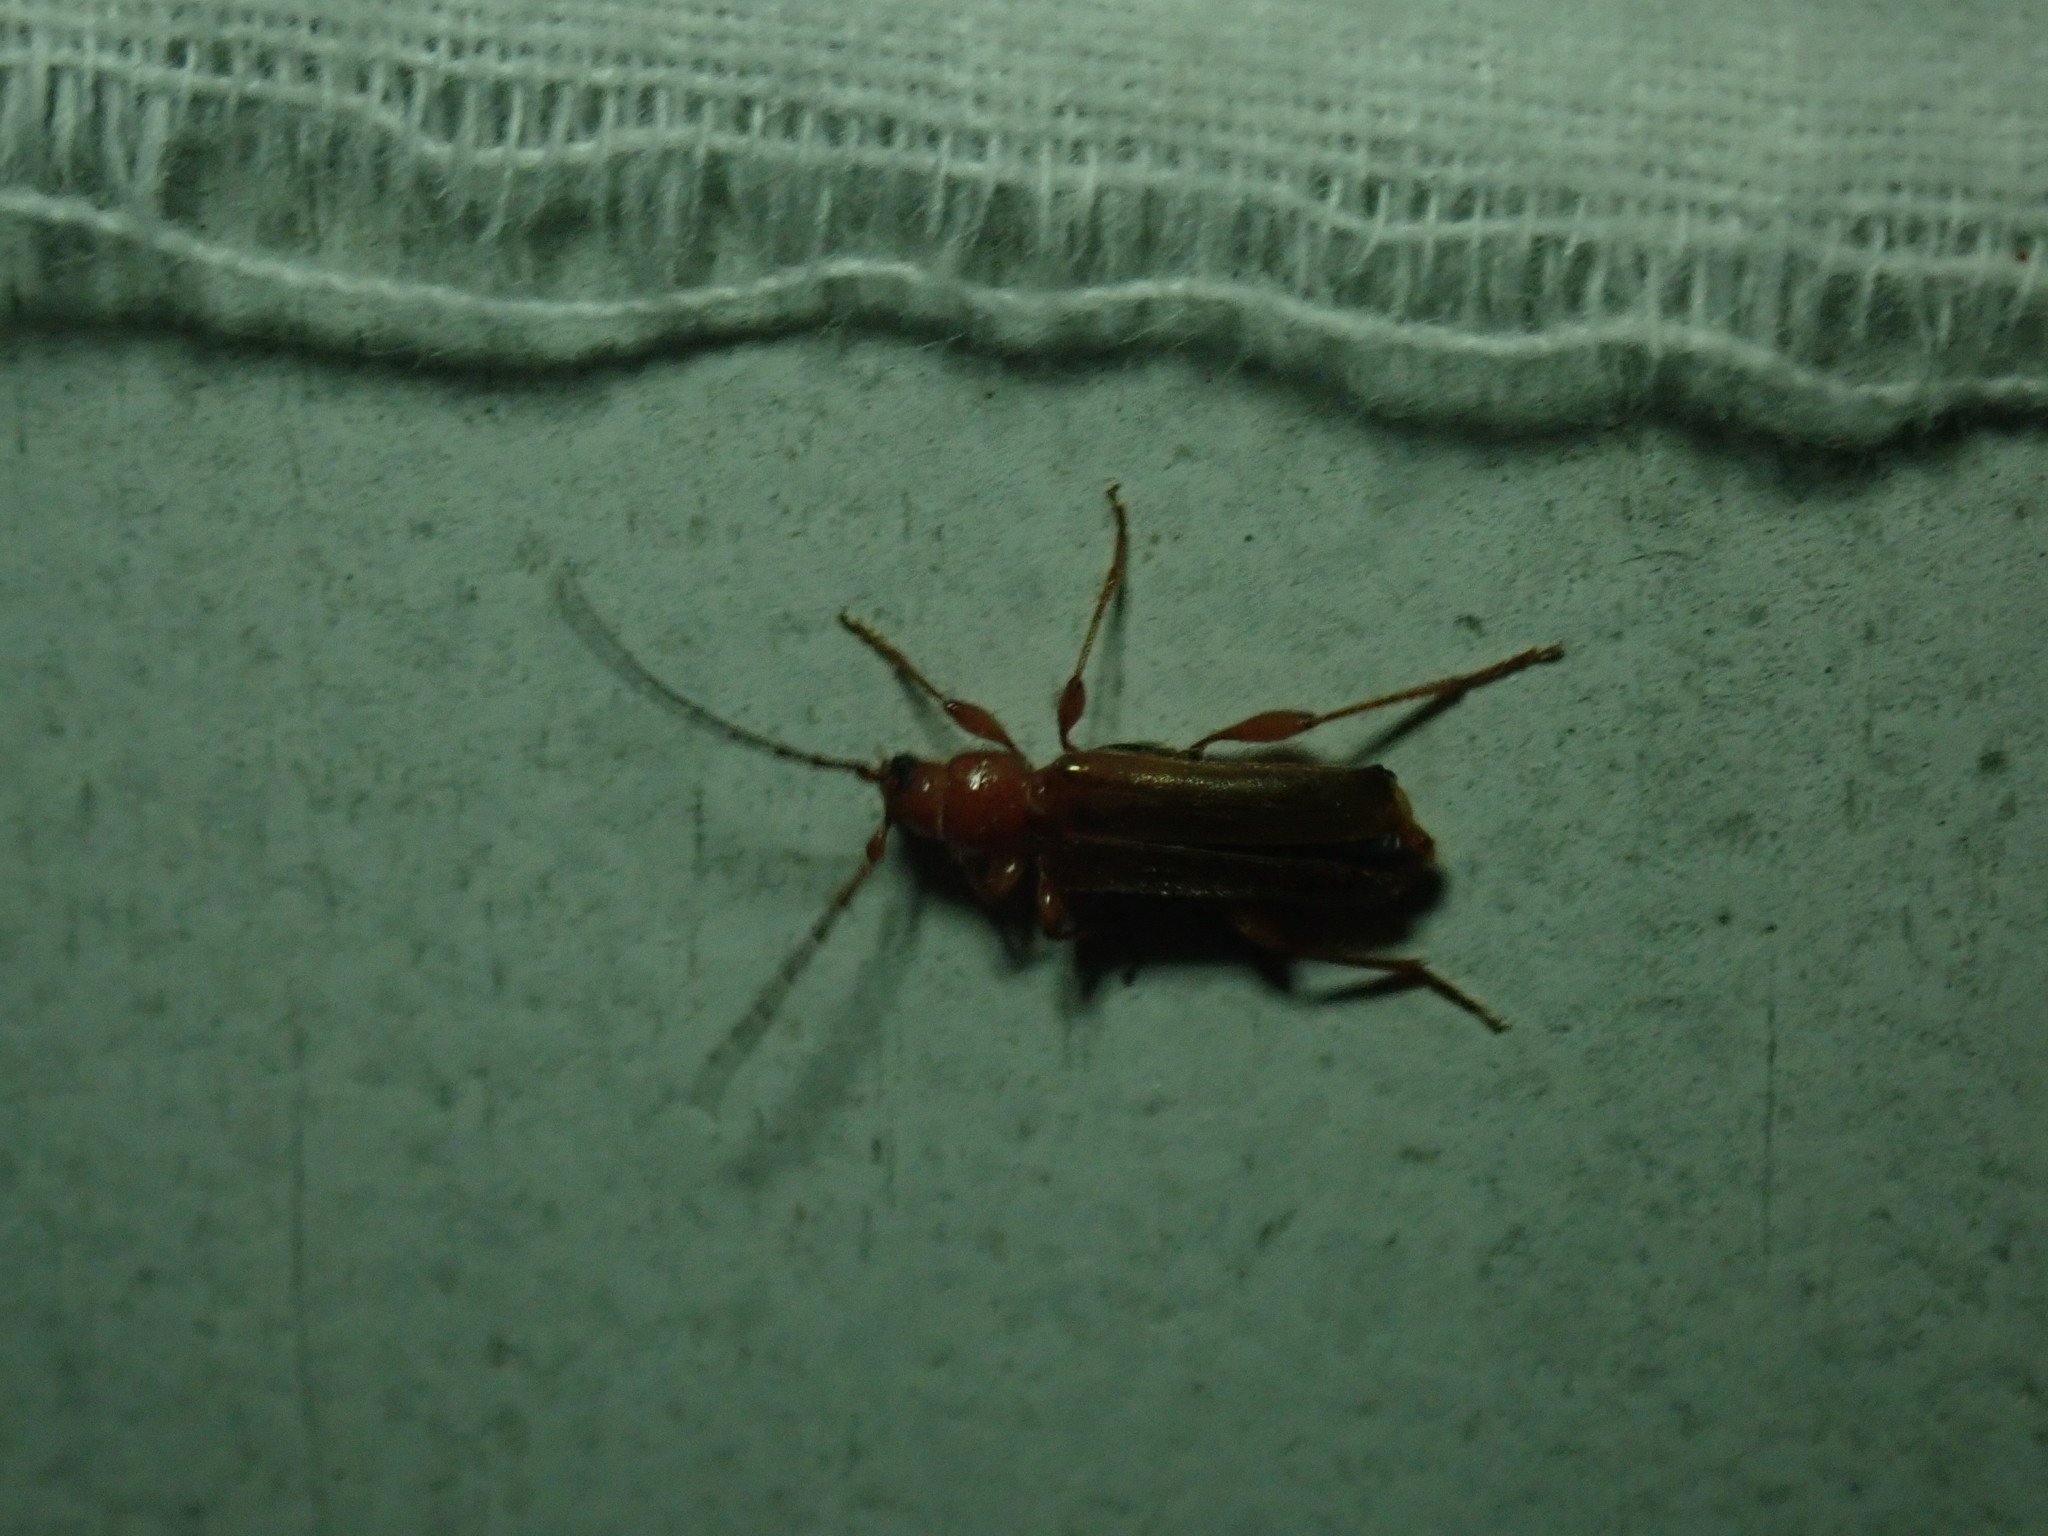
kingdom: Animalia
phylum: Arthropoda
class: Insecta
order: Coleoptera
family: Cerambycidae
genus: Phymatodes
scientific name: Phymatodes testaceus
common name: Long-horned beetle
